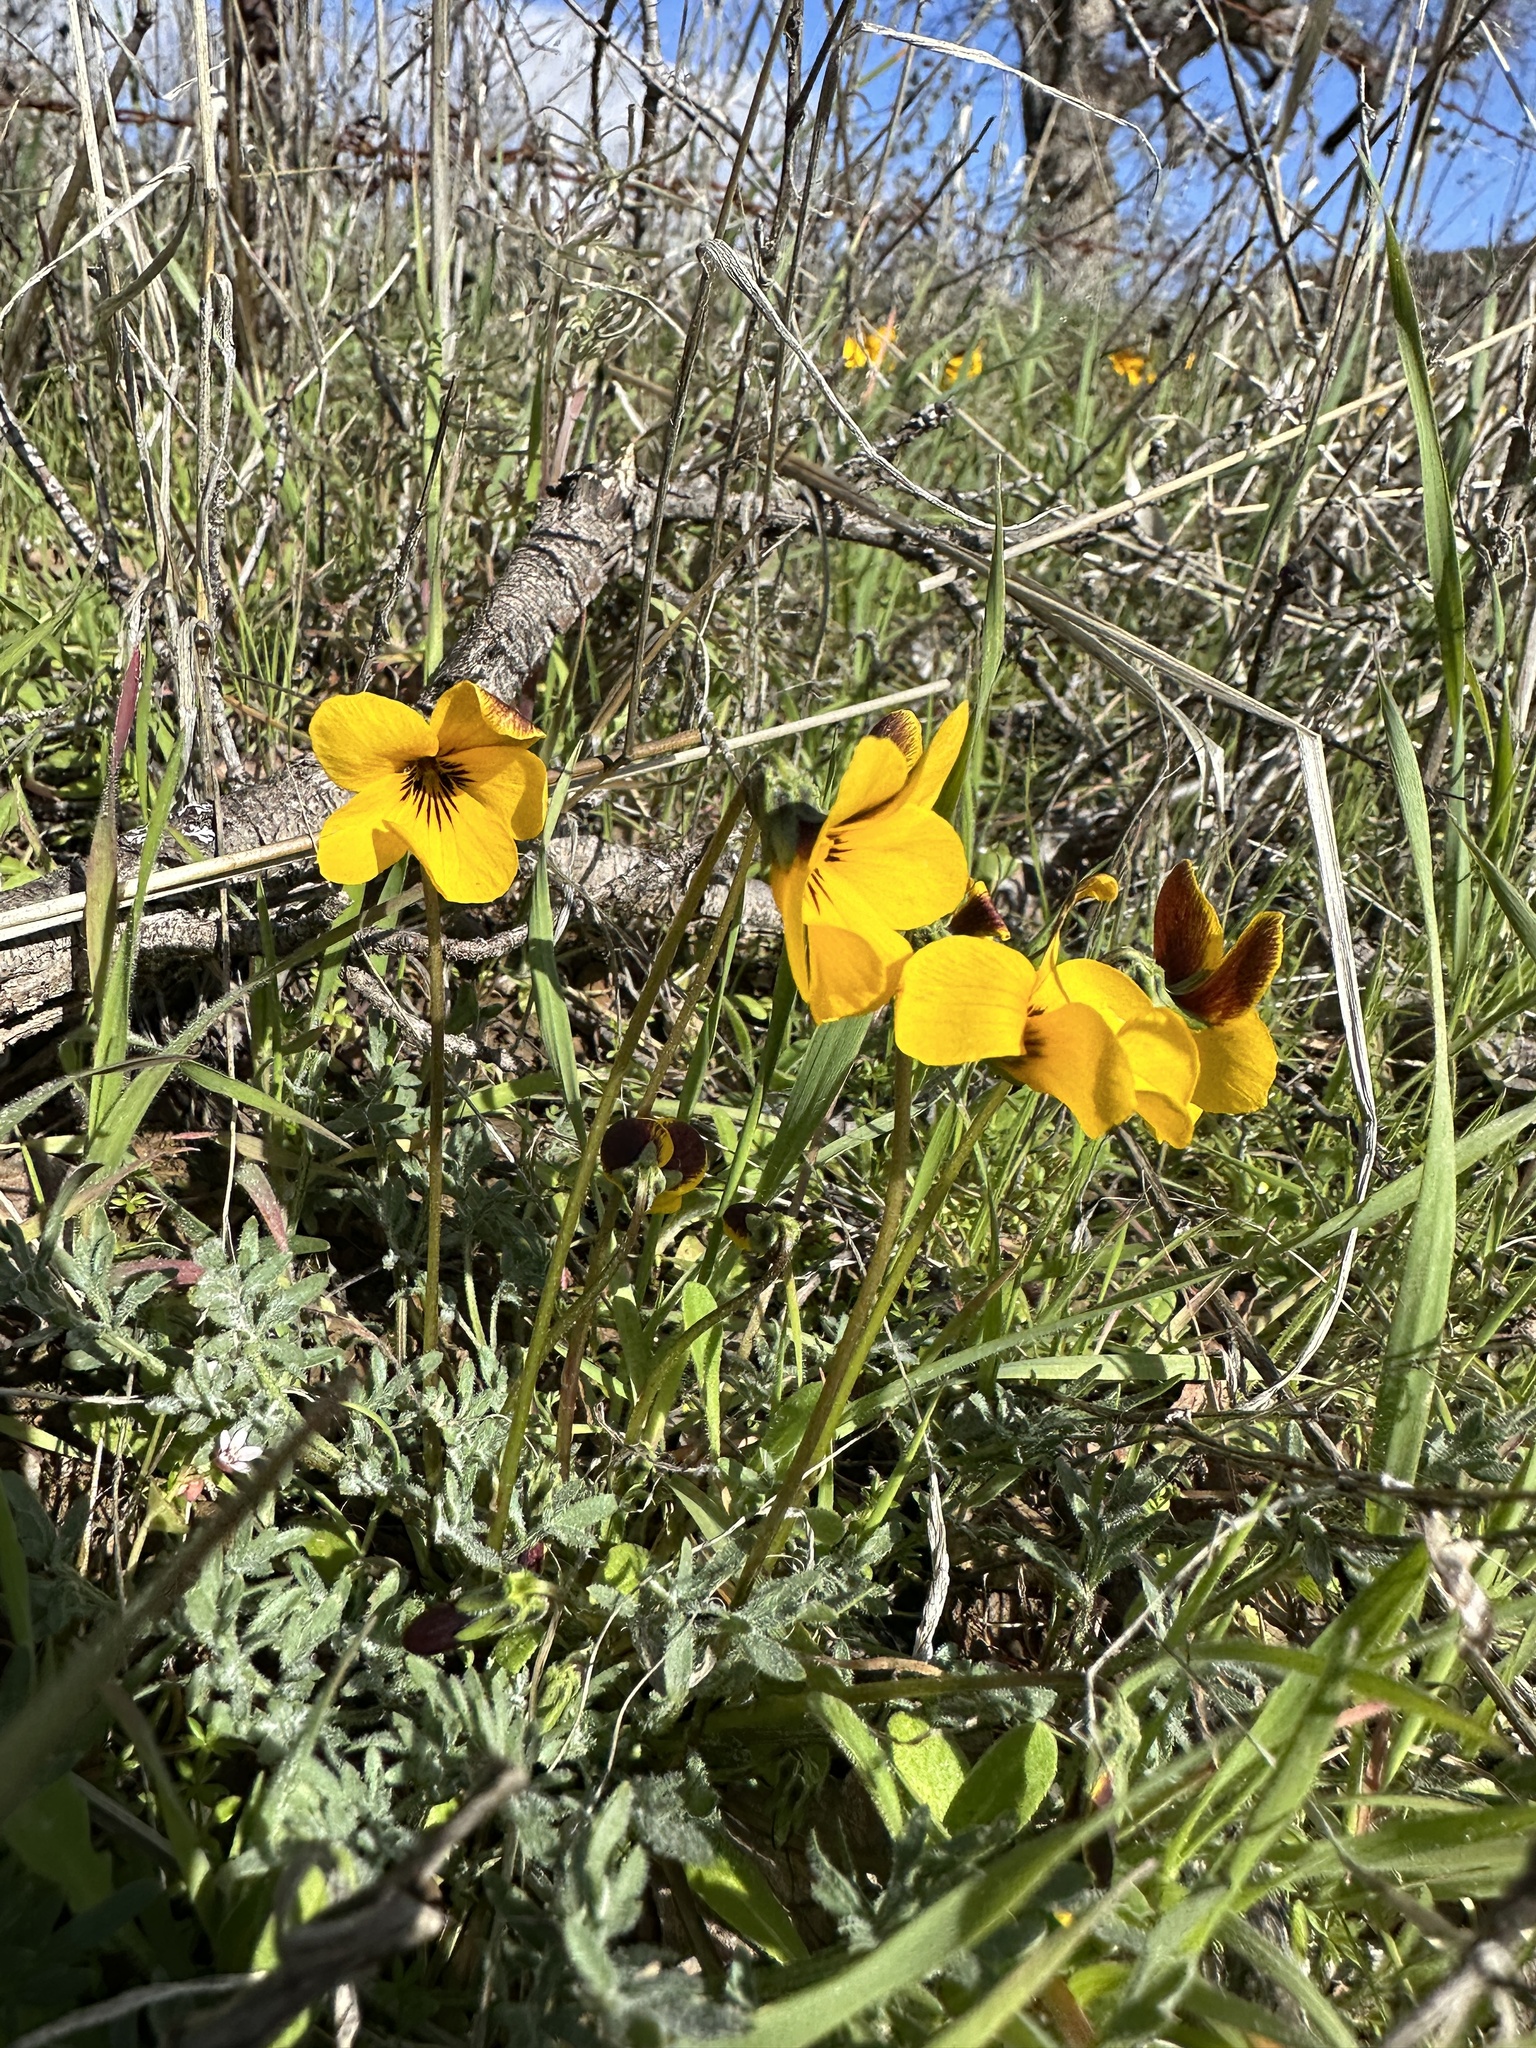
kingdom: Plantae
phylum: Tracheophyta
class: Magnoliopsida
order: Malpighiales
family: Violaceae
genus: Viola
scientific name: Viola douglasii
